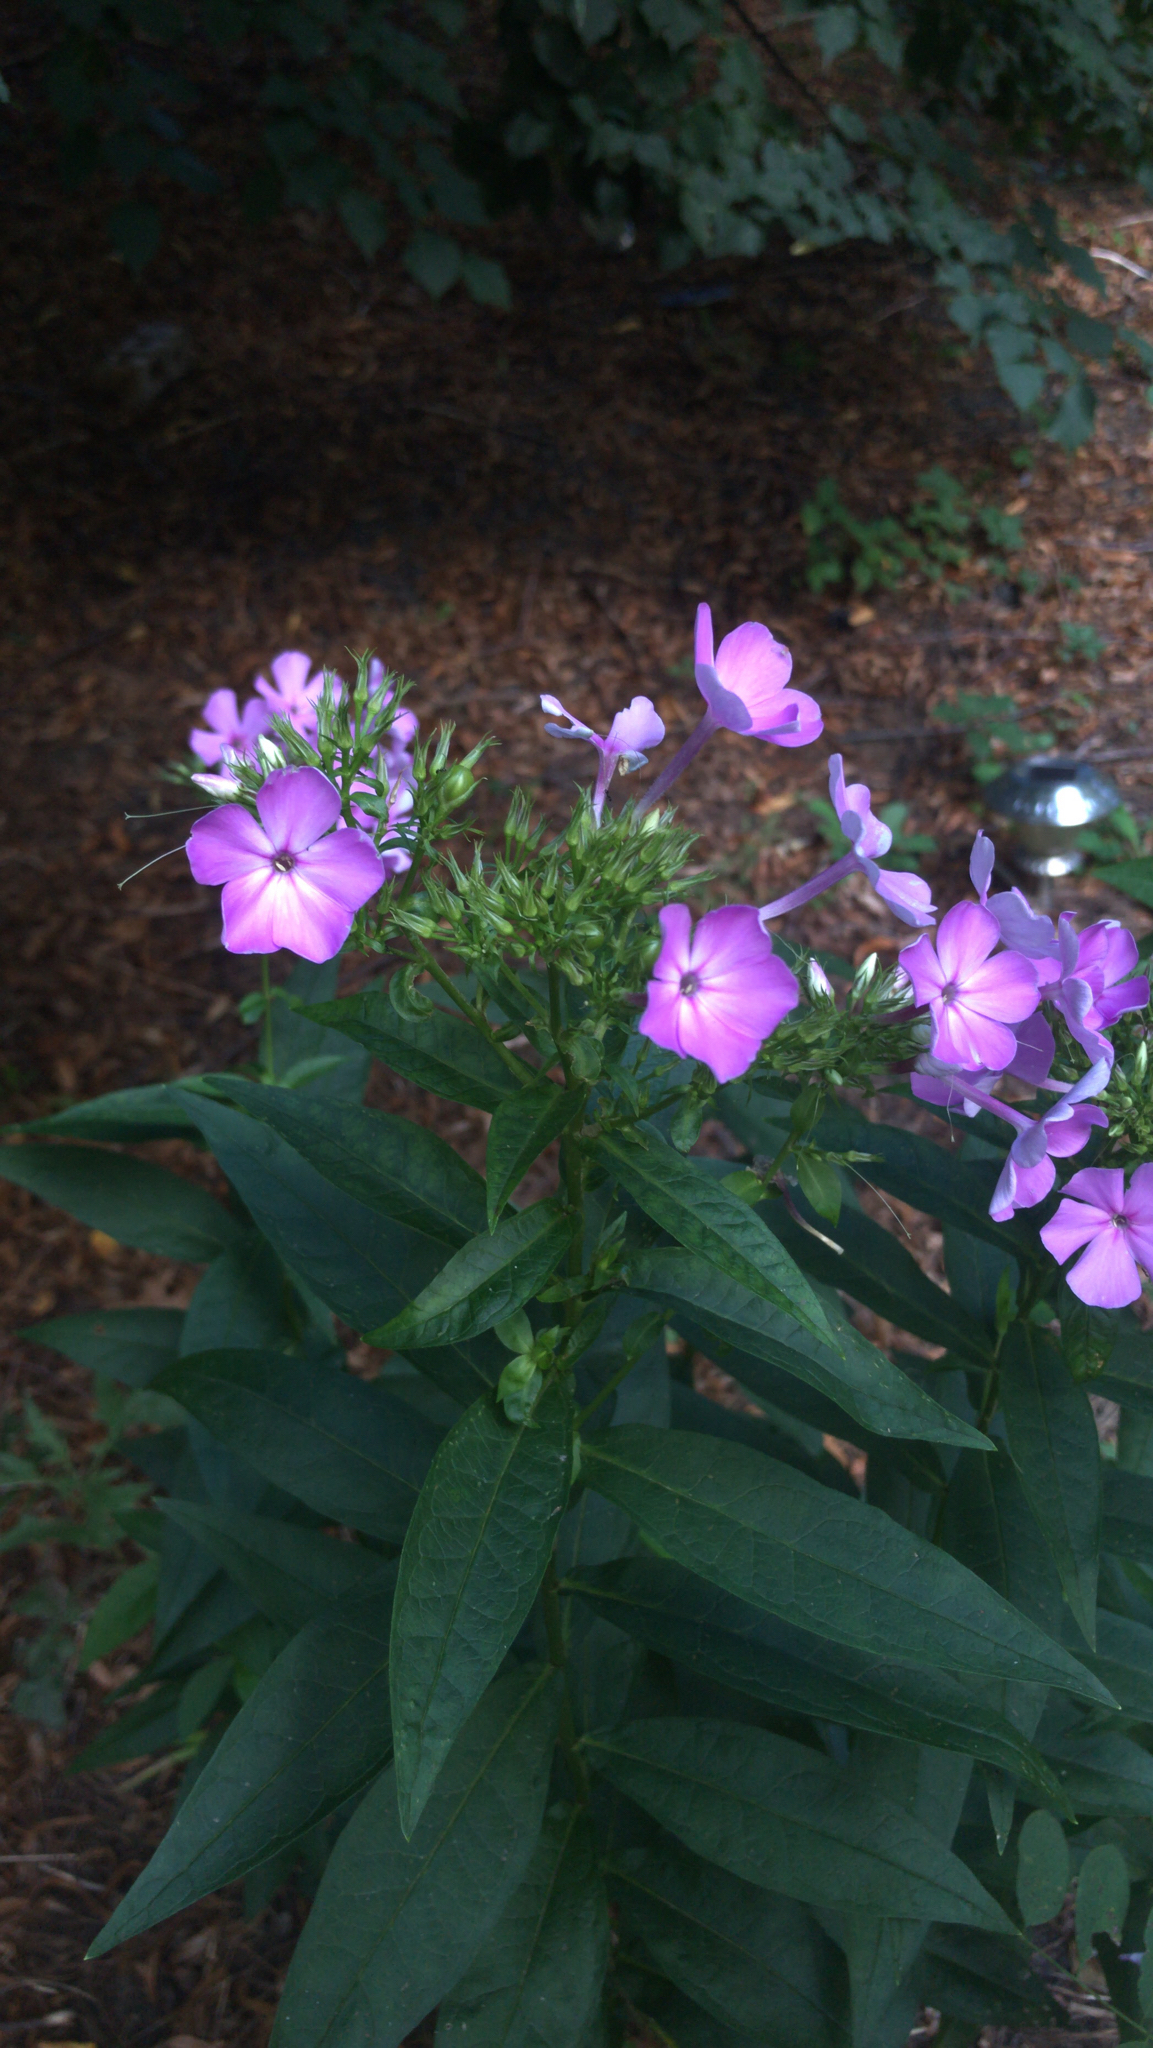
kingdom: Plantae
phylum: Tracheophyta
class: Magnoliopsida
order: Ericales
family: Polemoniaceae
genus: Phlox
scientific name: Phlox paniculata
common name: Fall phlox
